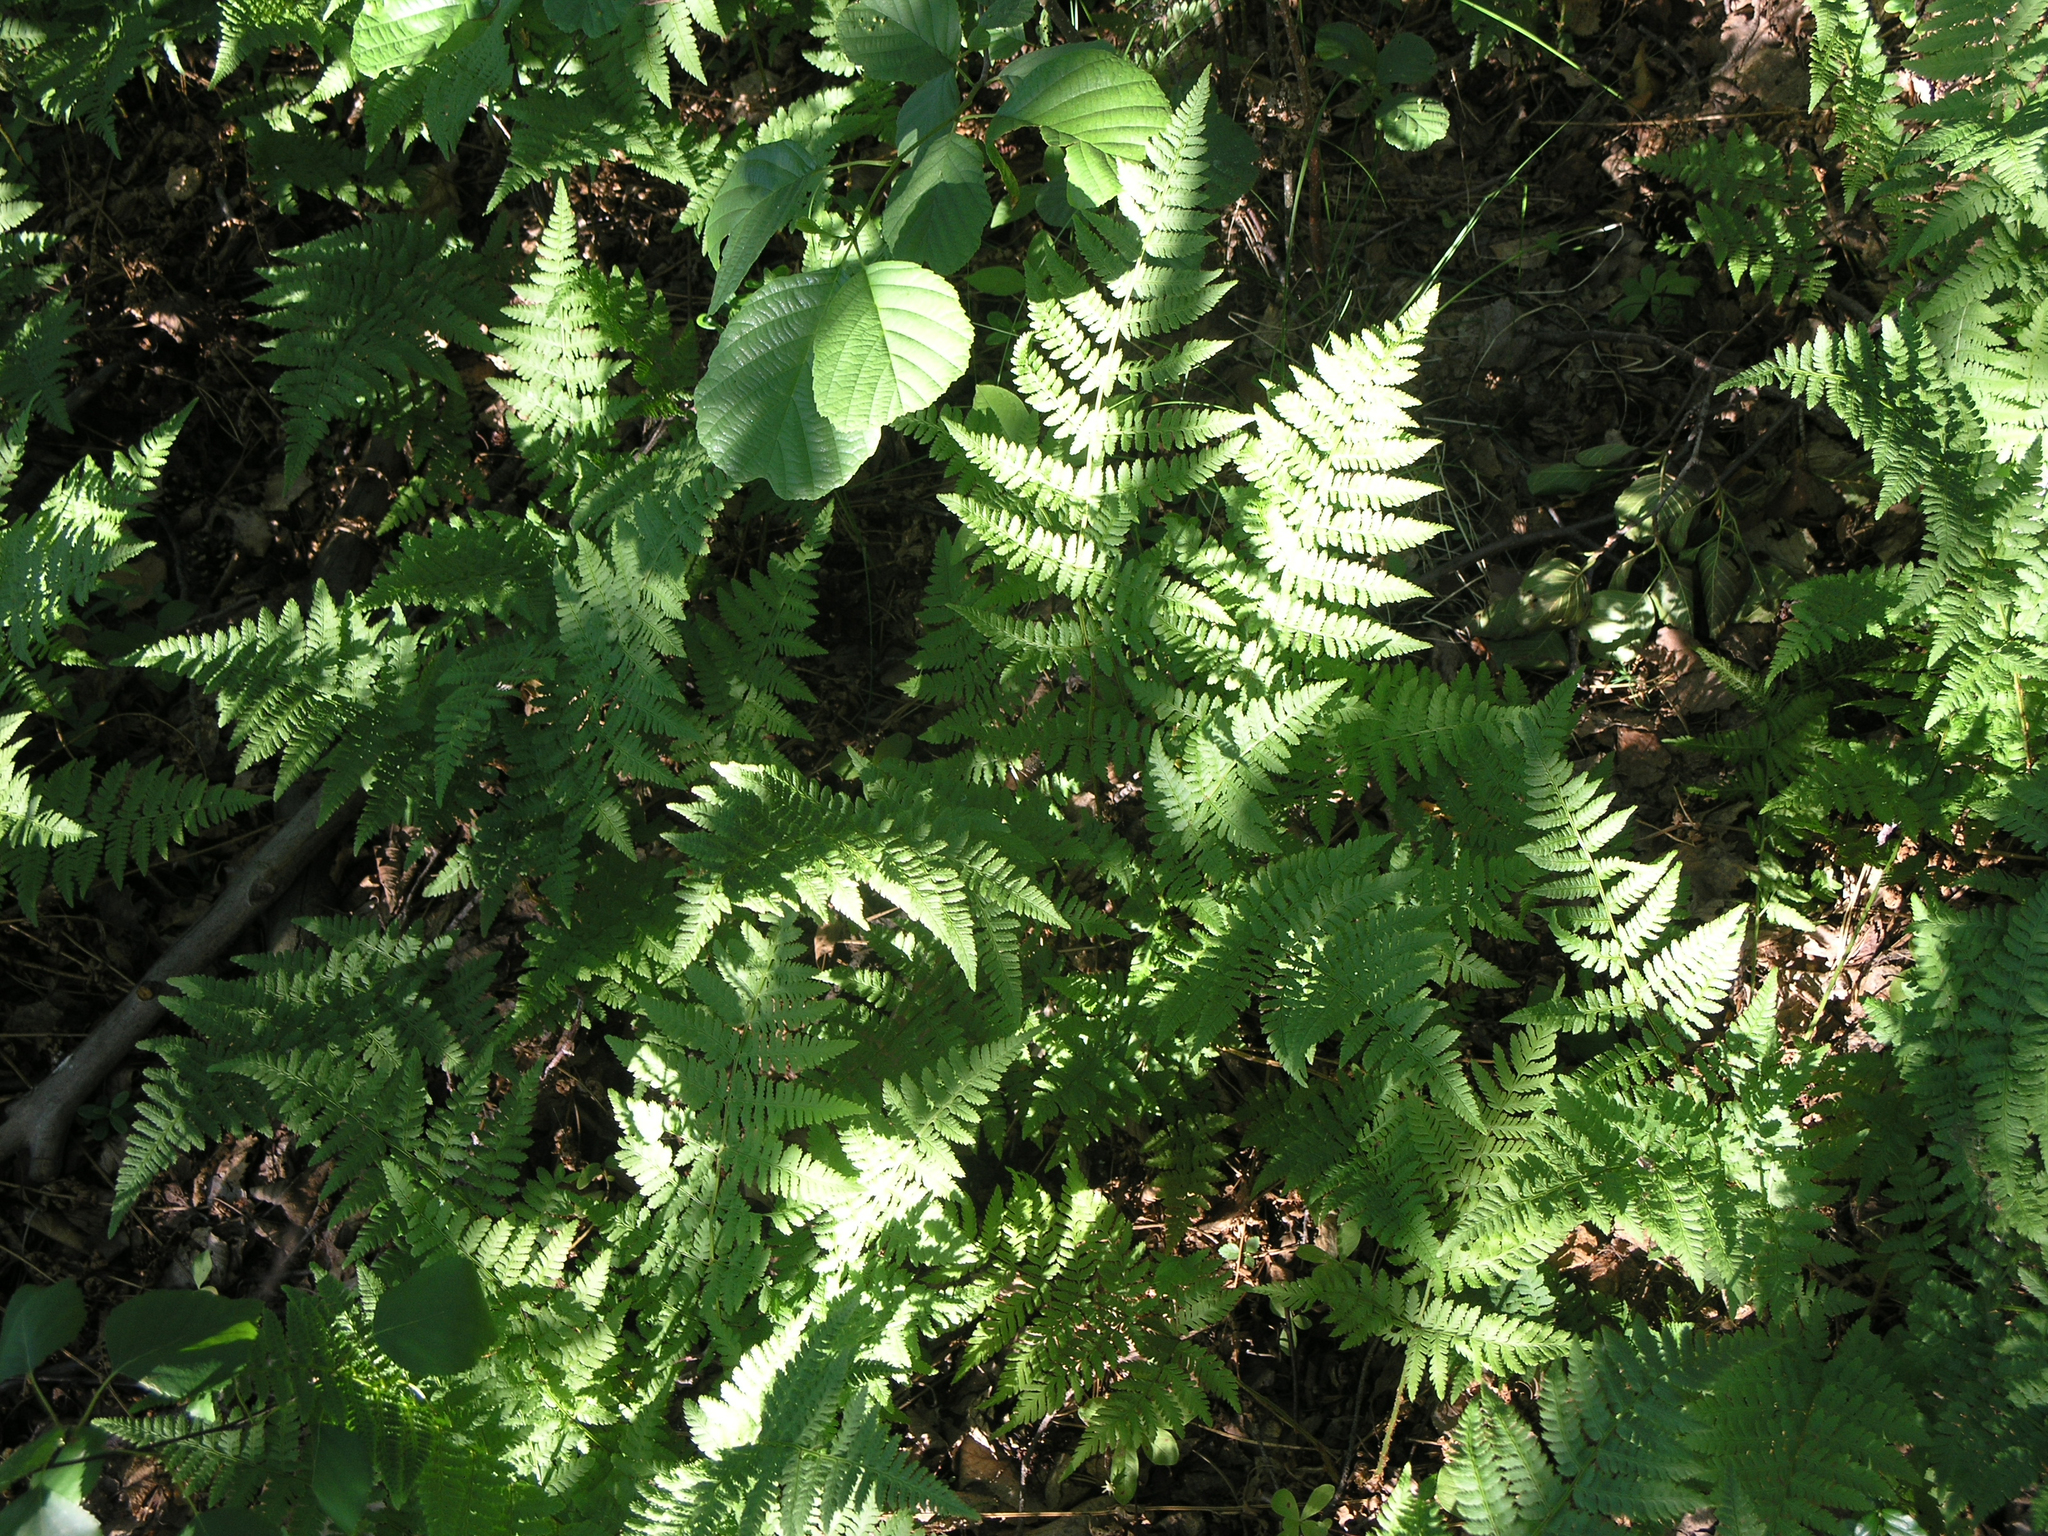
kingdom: Plantae
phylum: Tracheophyta
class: Polypodiopsida
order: Polypodiales
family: Athyriaceae
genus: Athyrium
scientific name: Athyrium filix-femina
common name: Lady fern
